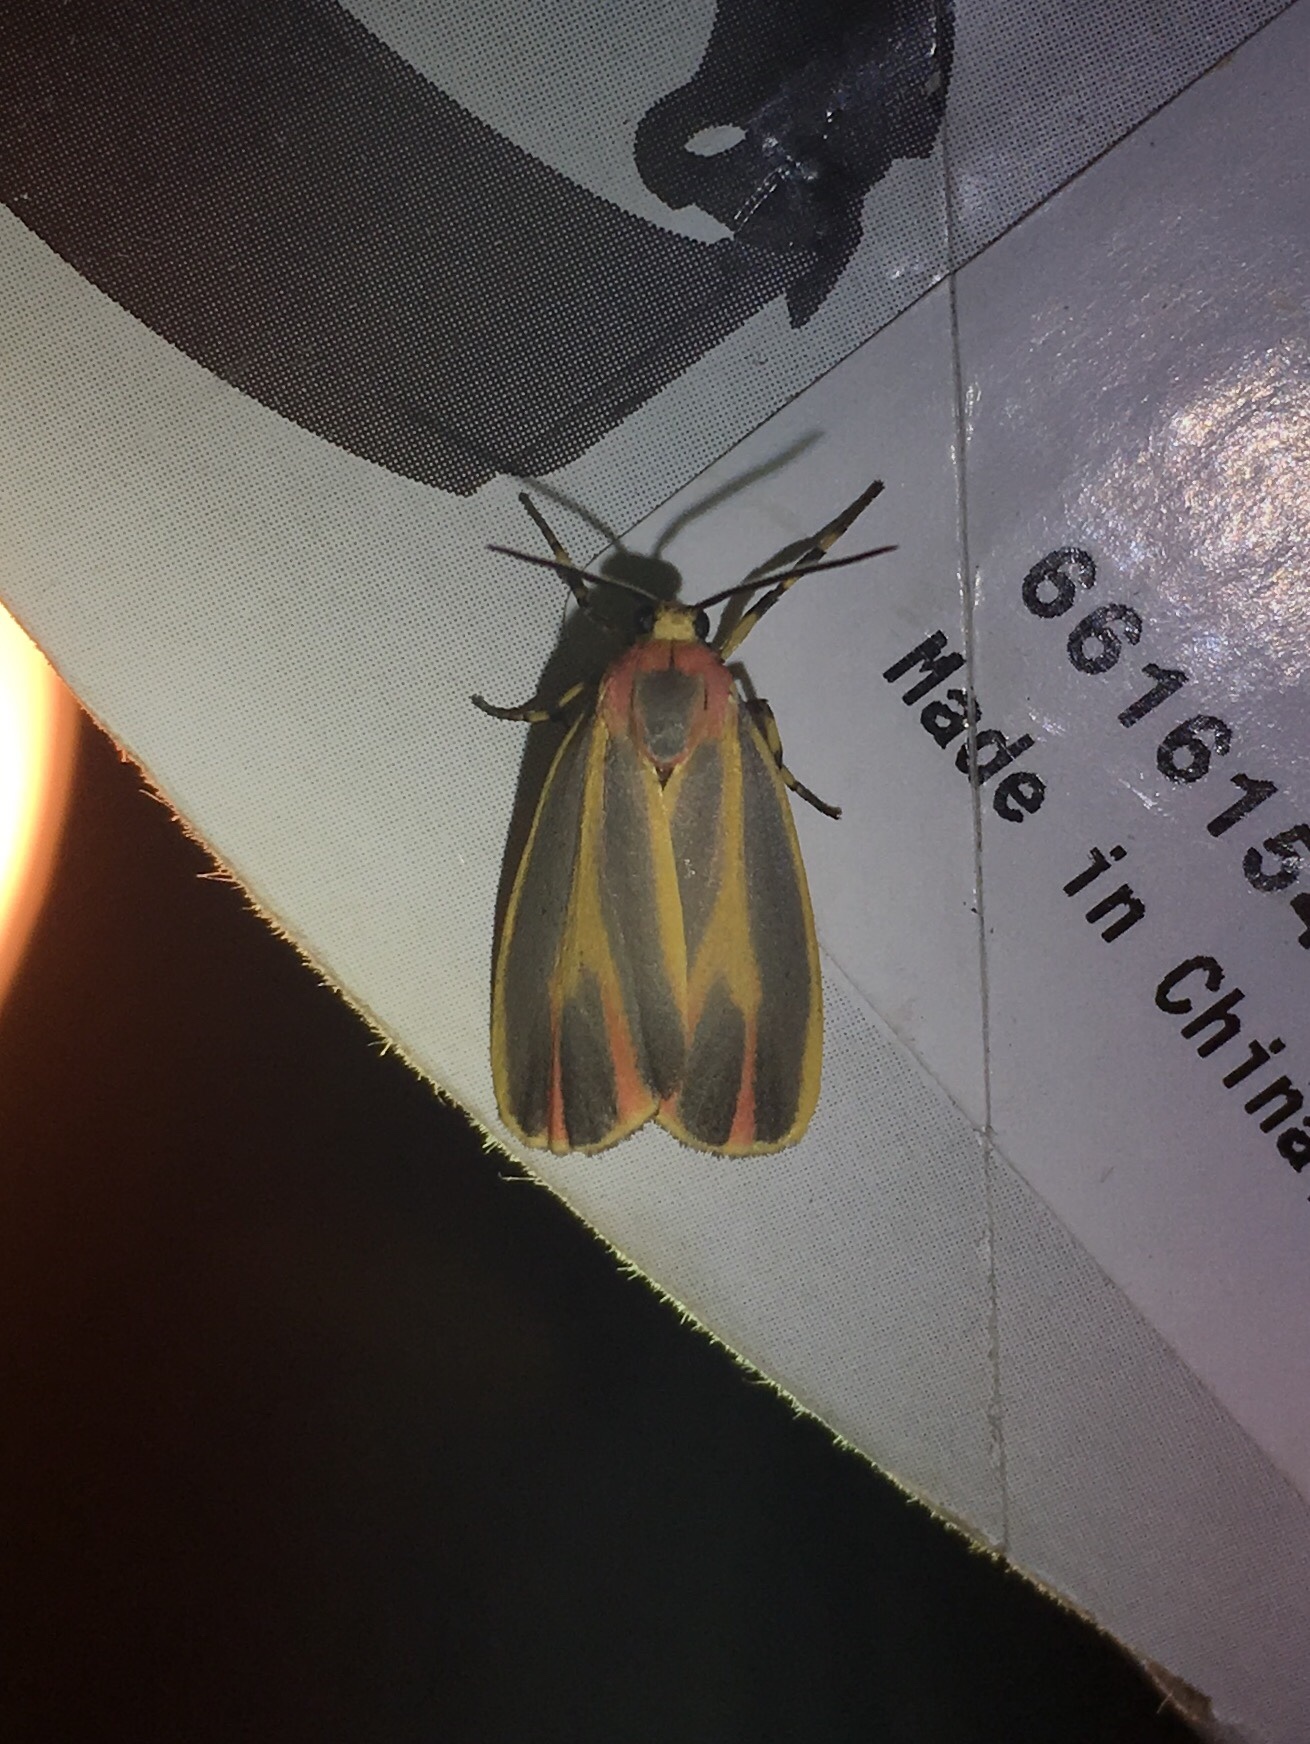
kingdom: Animalia
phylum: Arthropoda
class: Insecta
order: Lepidoptera
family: Erebidae
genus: Hypoprepia
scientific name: Hypoprepia fucosa
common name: Painted lichen moth
